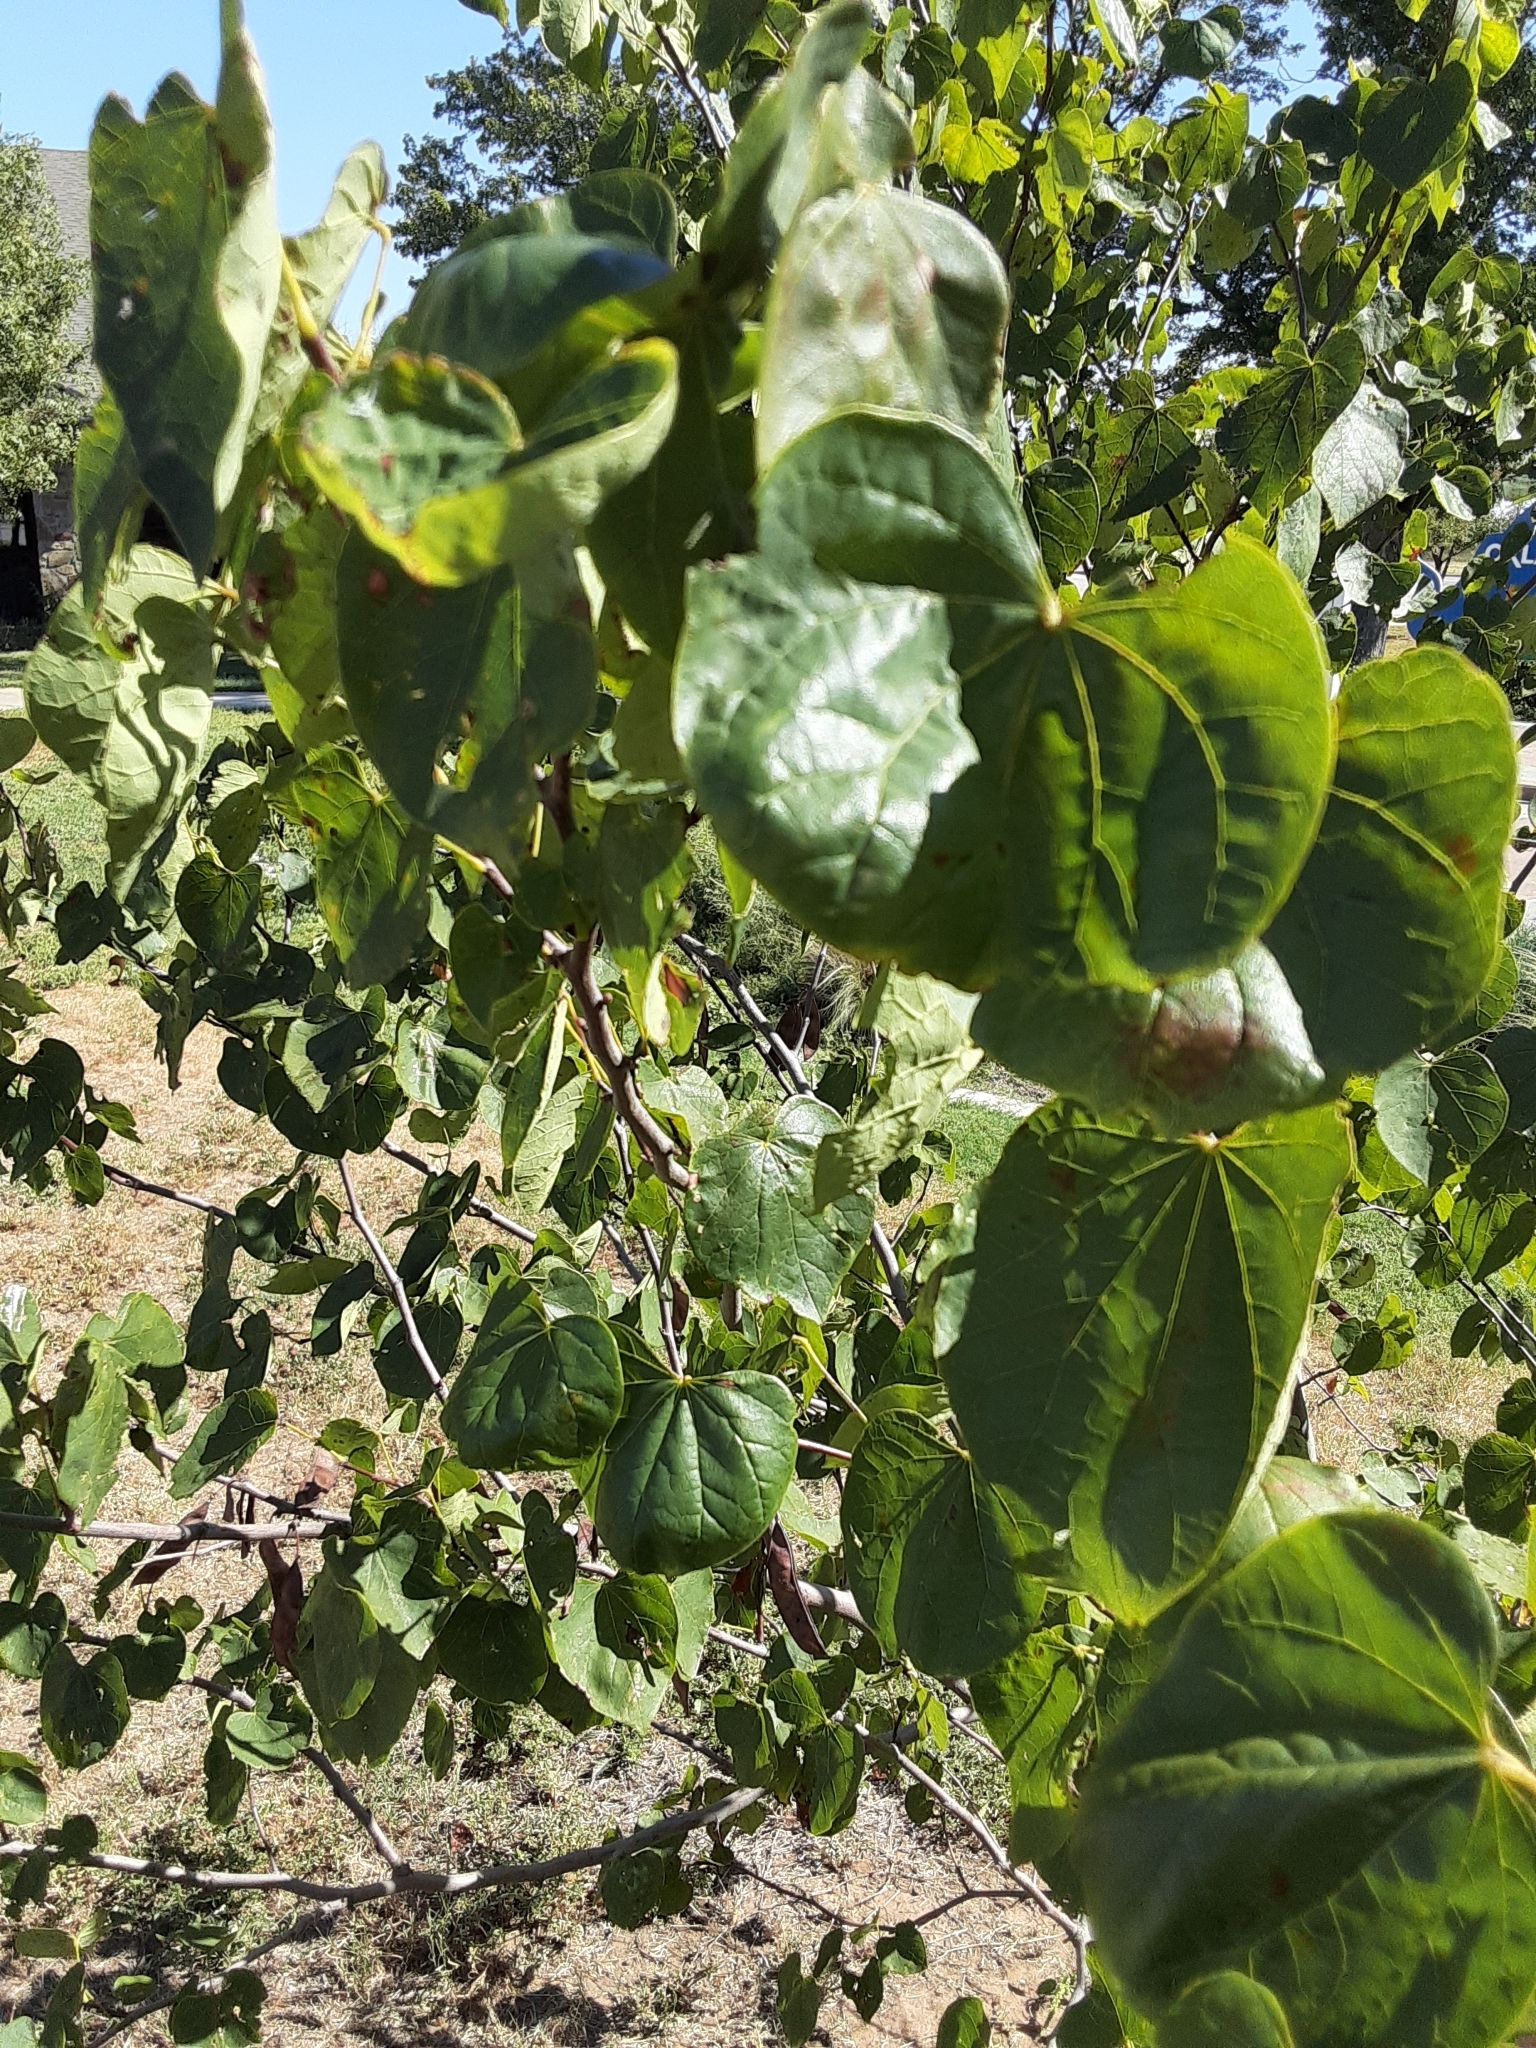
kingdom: Plantae
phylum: Tracheophyta
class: Magnoliopsida
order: Fabales
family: Fabaceae
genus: Cercis
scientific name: Cercis canadensis
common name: Eastern redbud
